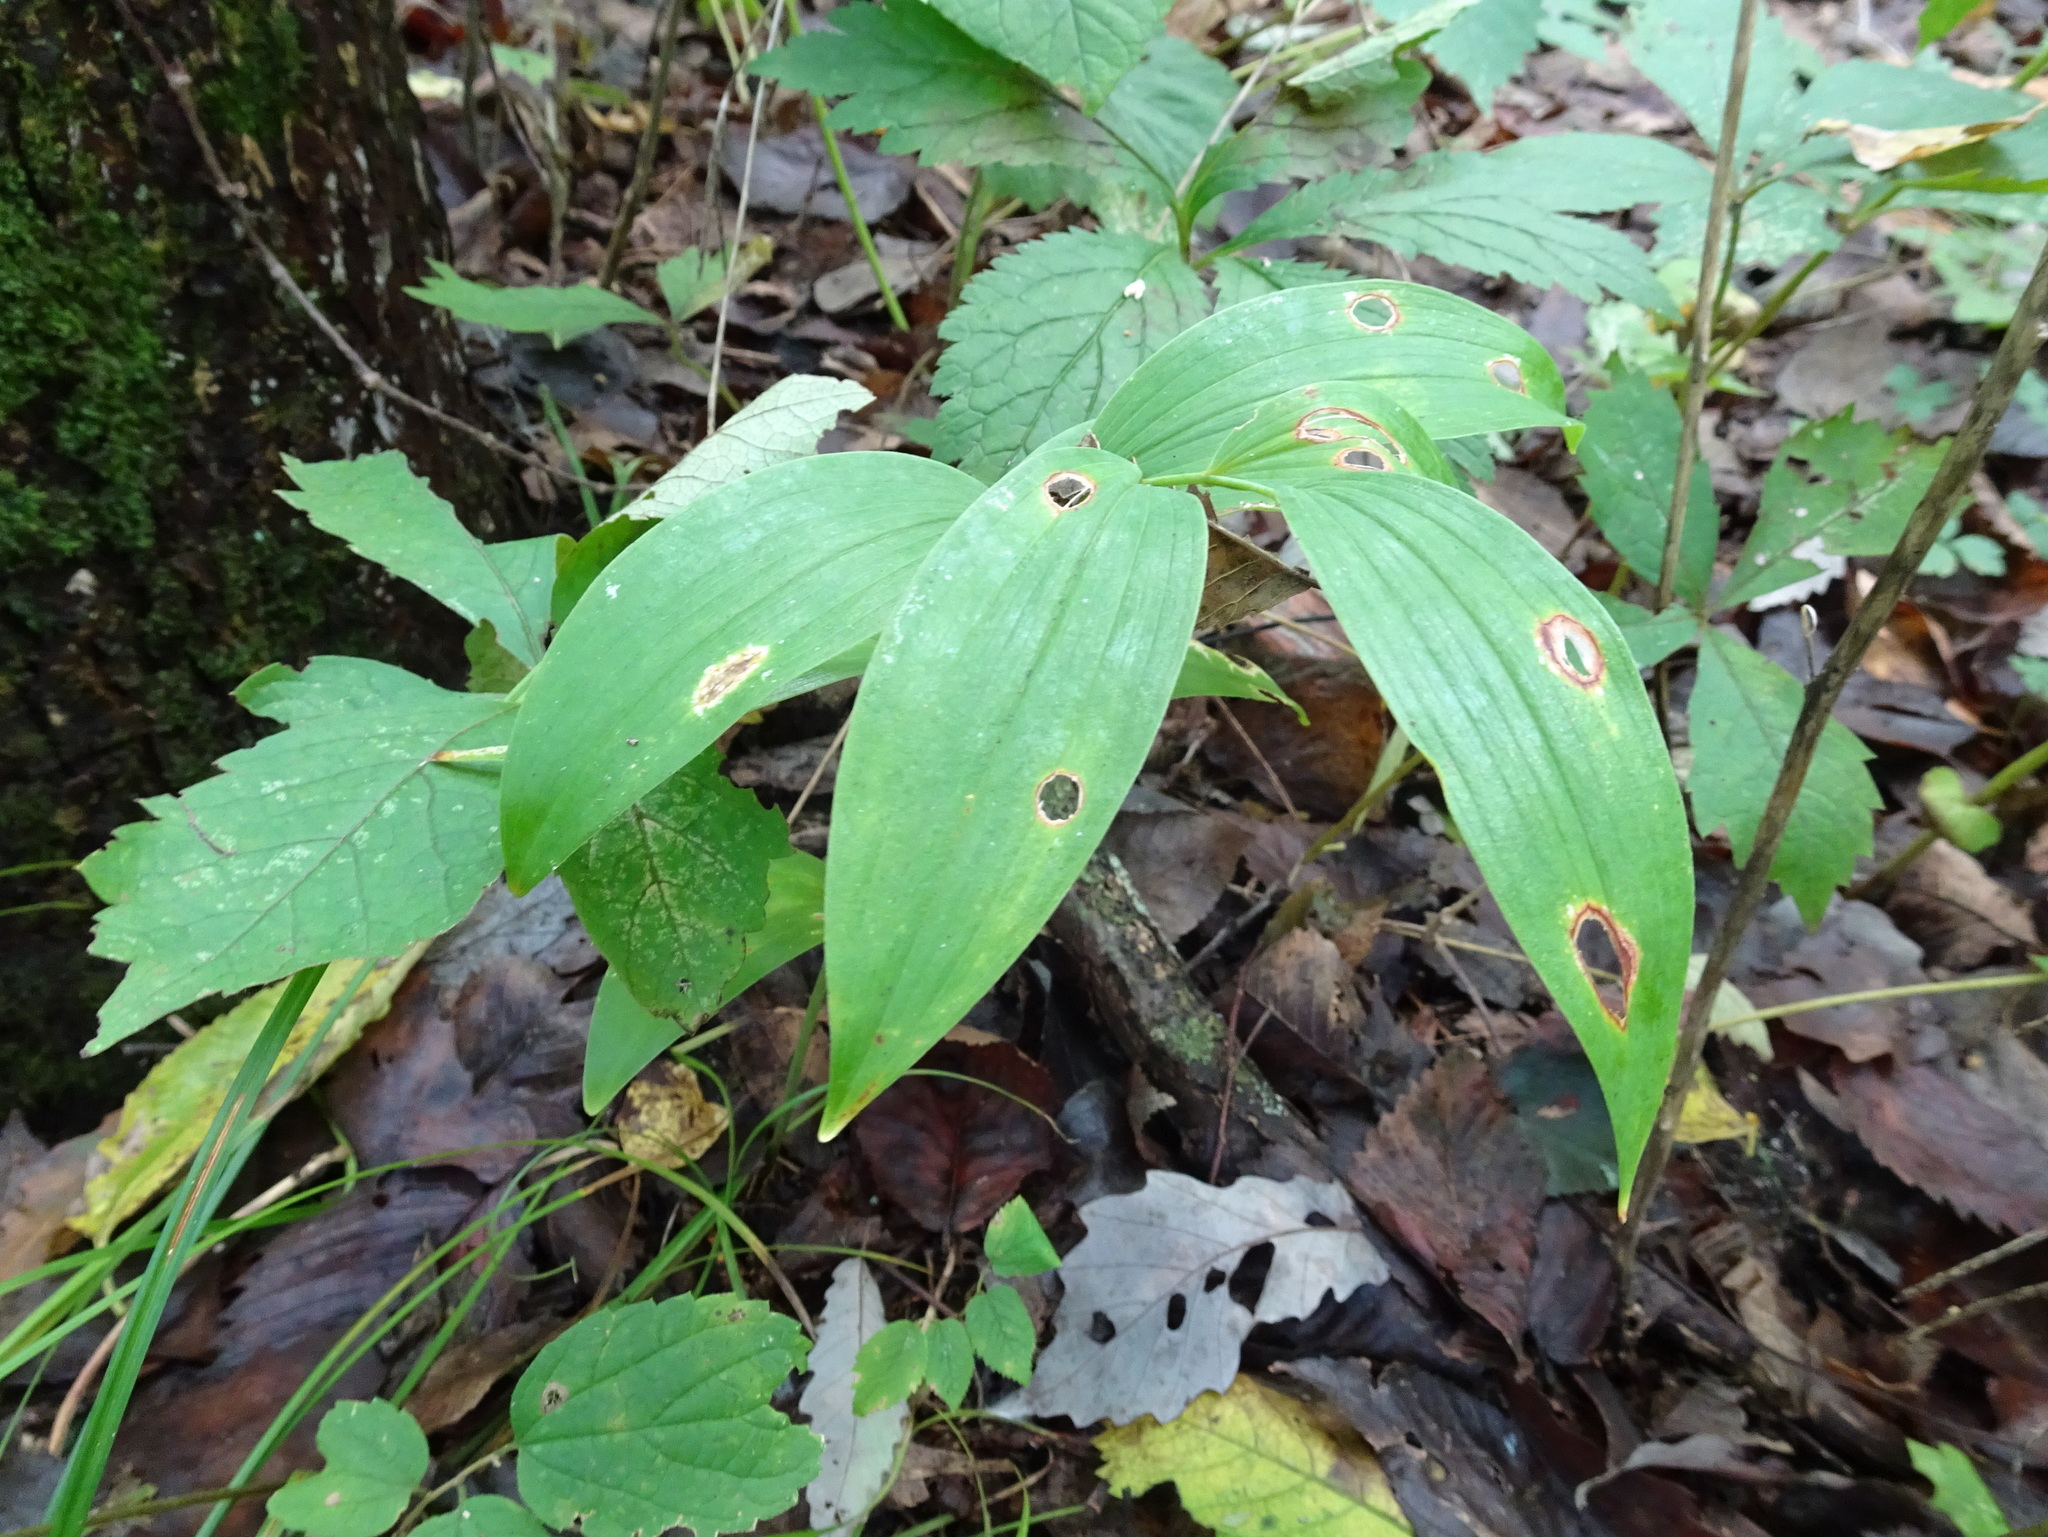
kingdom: Plantae
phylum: Tracheophyta
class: Liliopsida
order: Asparagales
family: Asparagaceae
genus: Polygonatum
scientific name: Polygonatum biflorum
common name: American solomon's-seal
